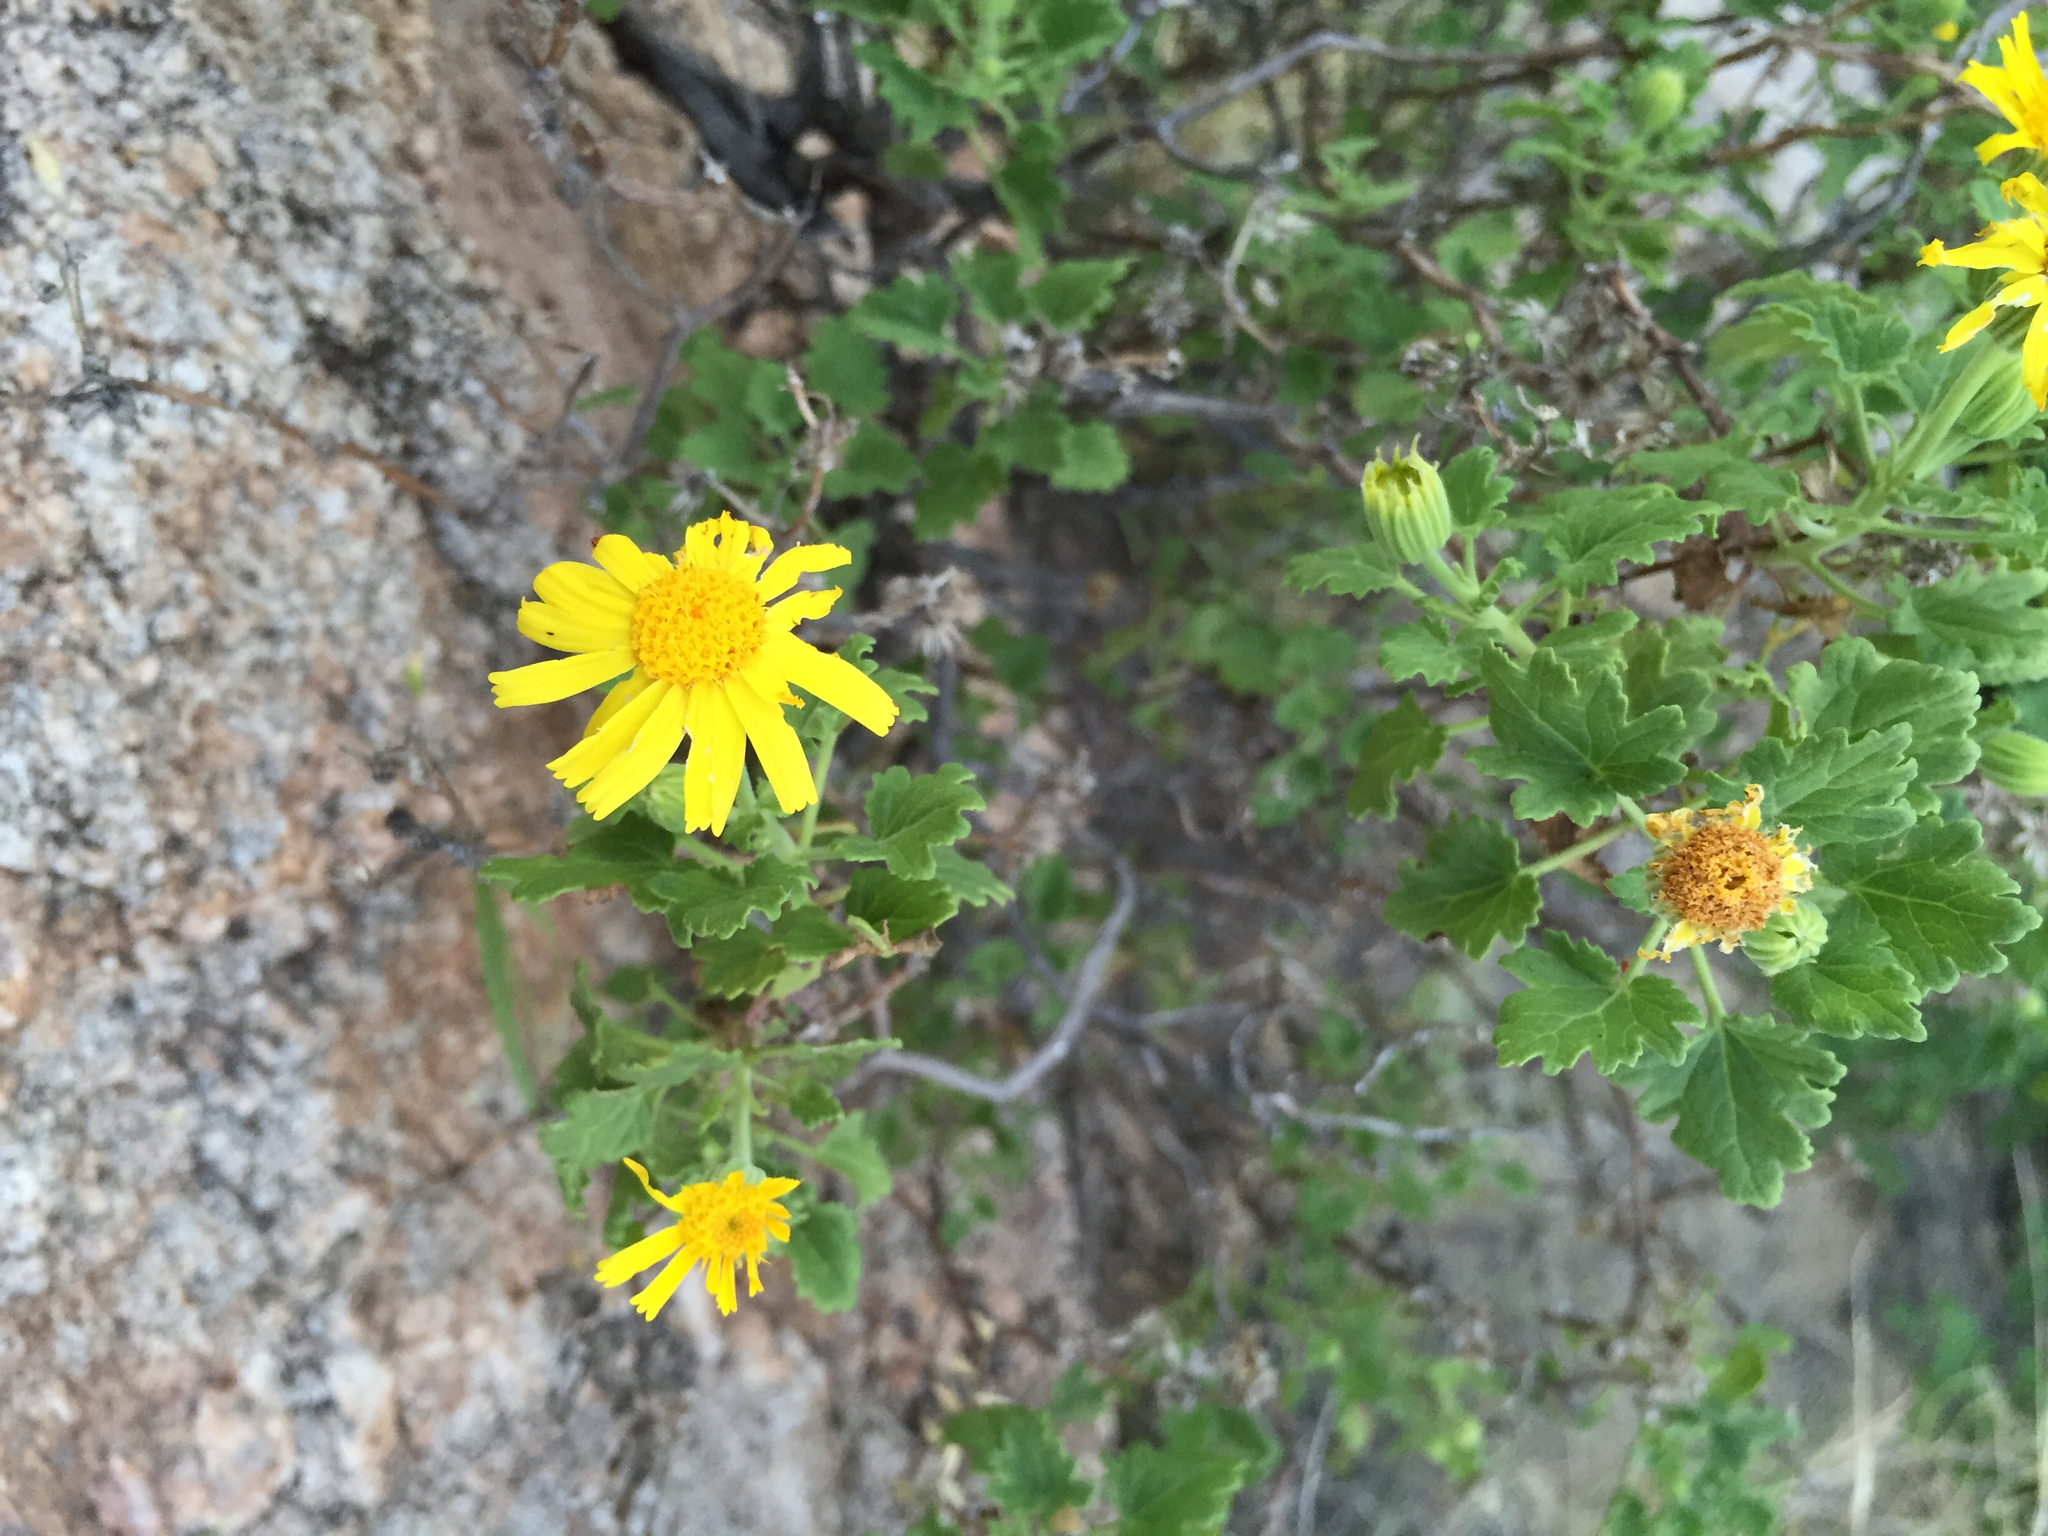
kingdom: Plantae
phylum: Tracheophyta
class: Magnoliopsida
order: Asterales
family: Asteraceae
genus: Laphamia
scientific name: Laphamia leptoglossa
